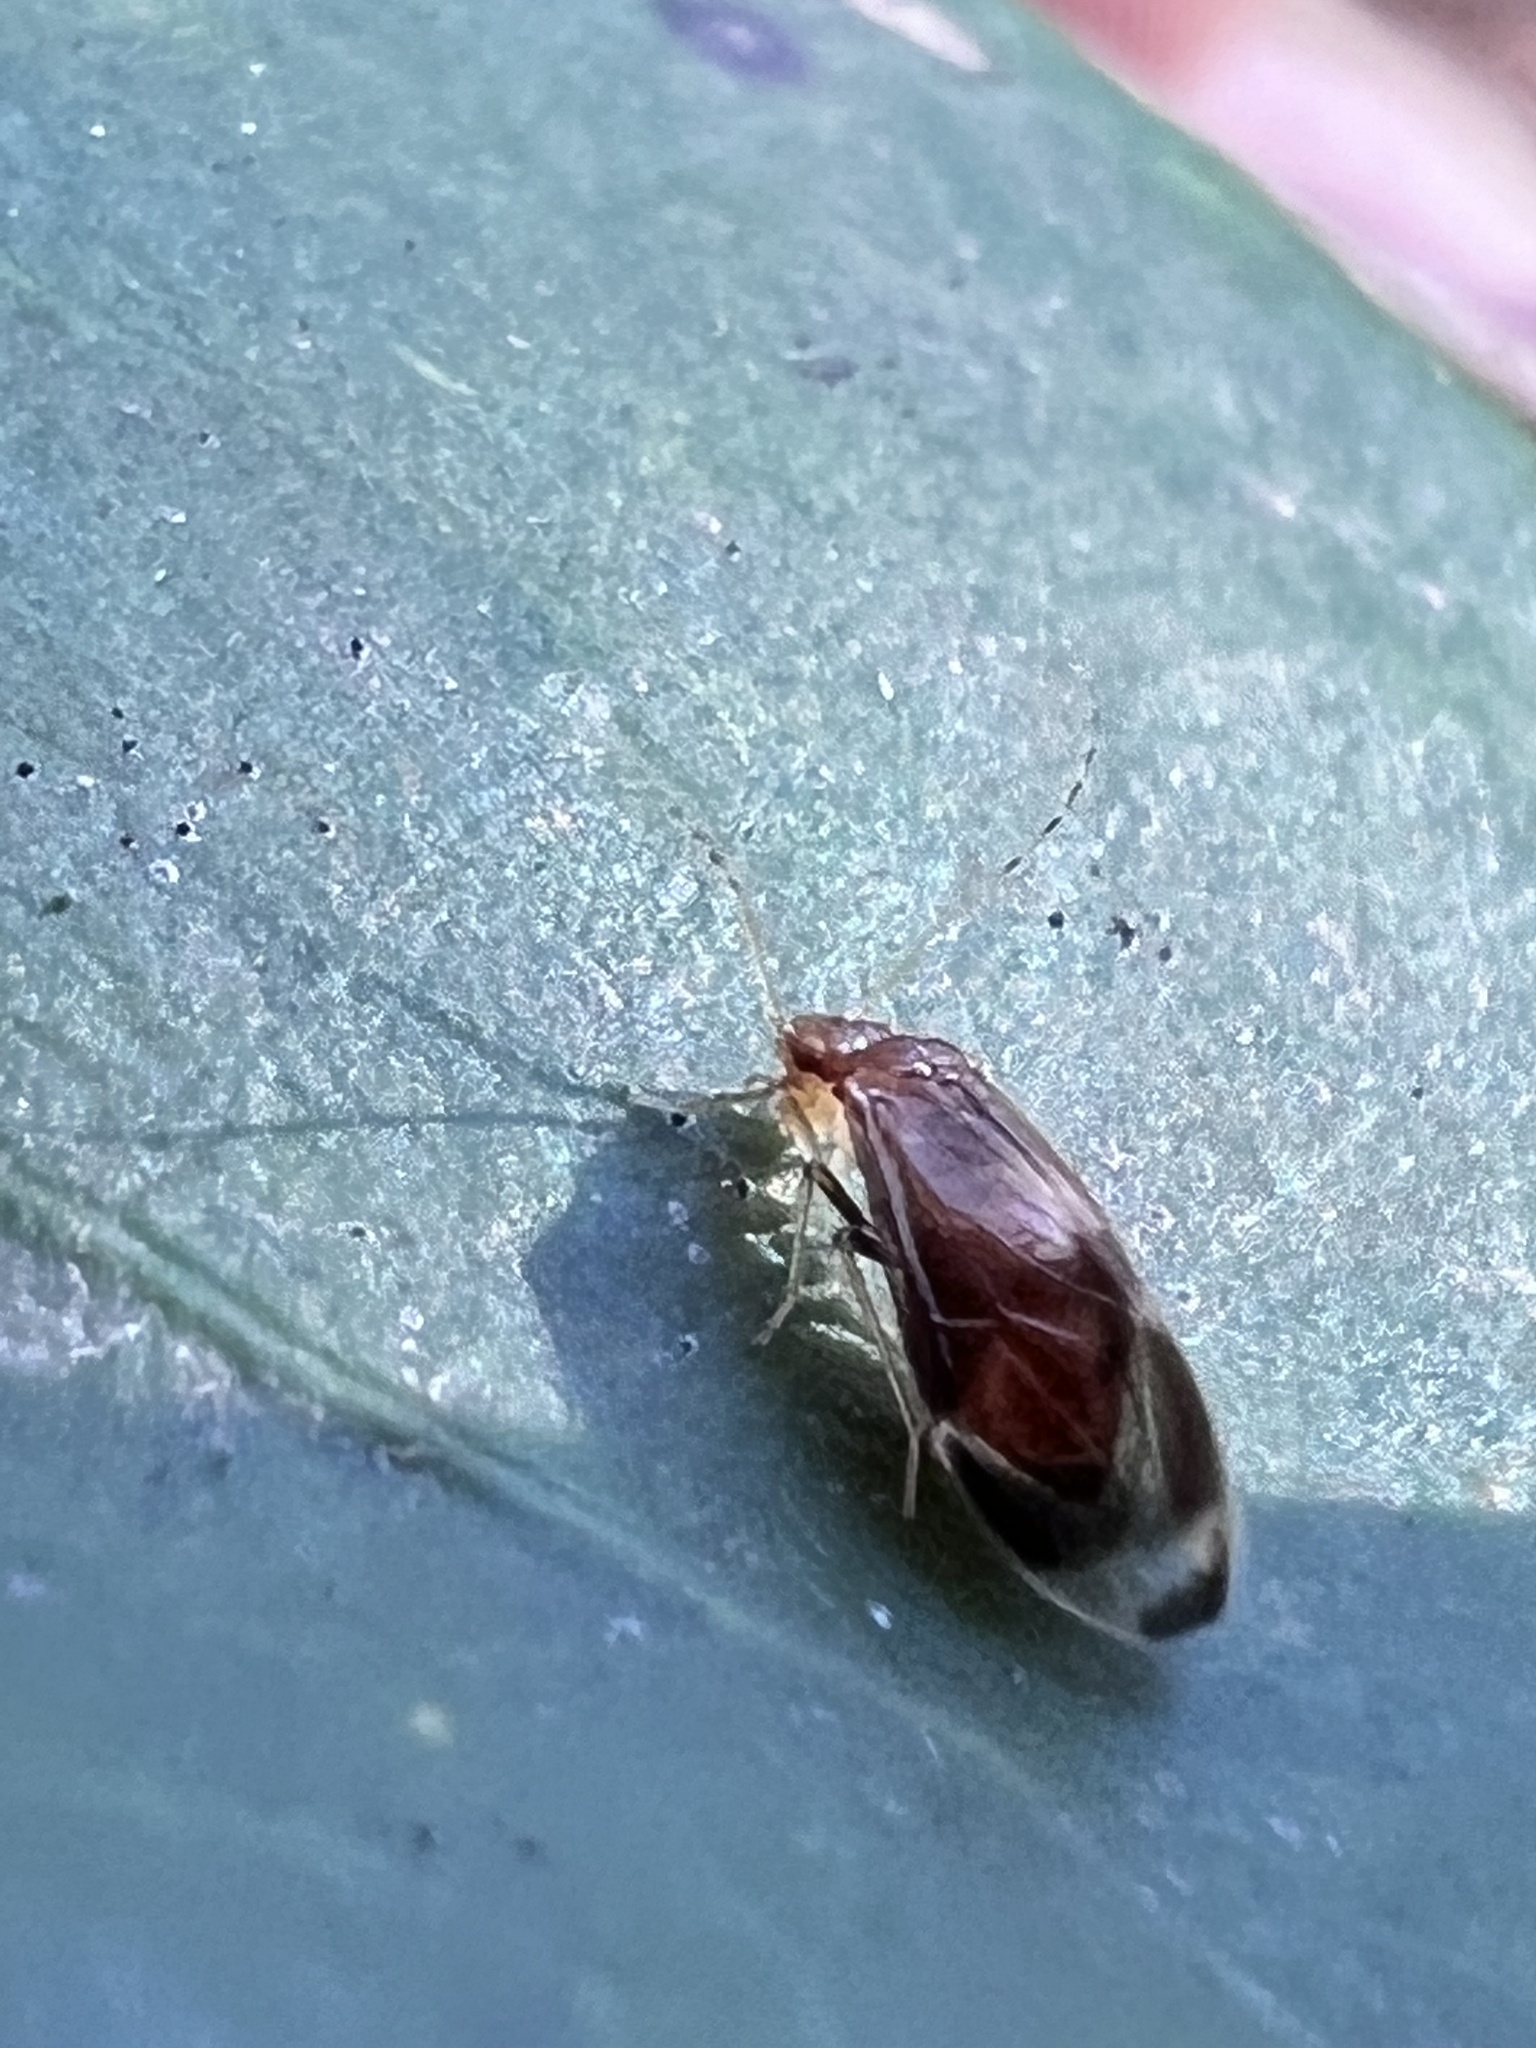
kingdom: Animalia
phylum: Arthropoda
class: Insecta
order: Psocodea
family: Amphipsocidae
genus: Polypsocus
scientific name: Polypsocus corruptus
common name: Corrupt barklouse
